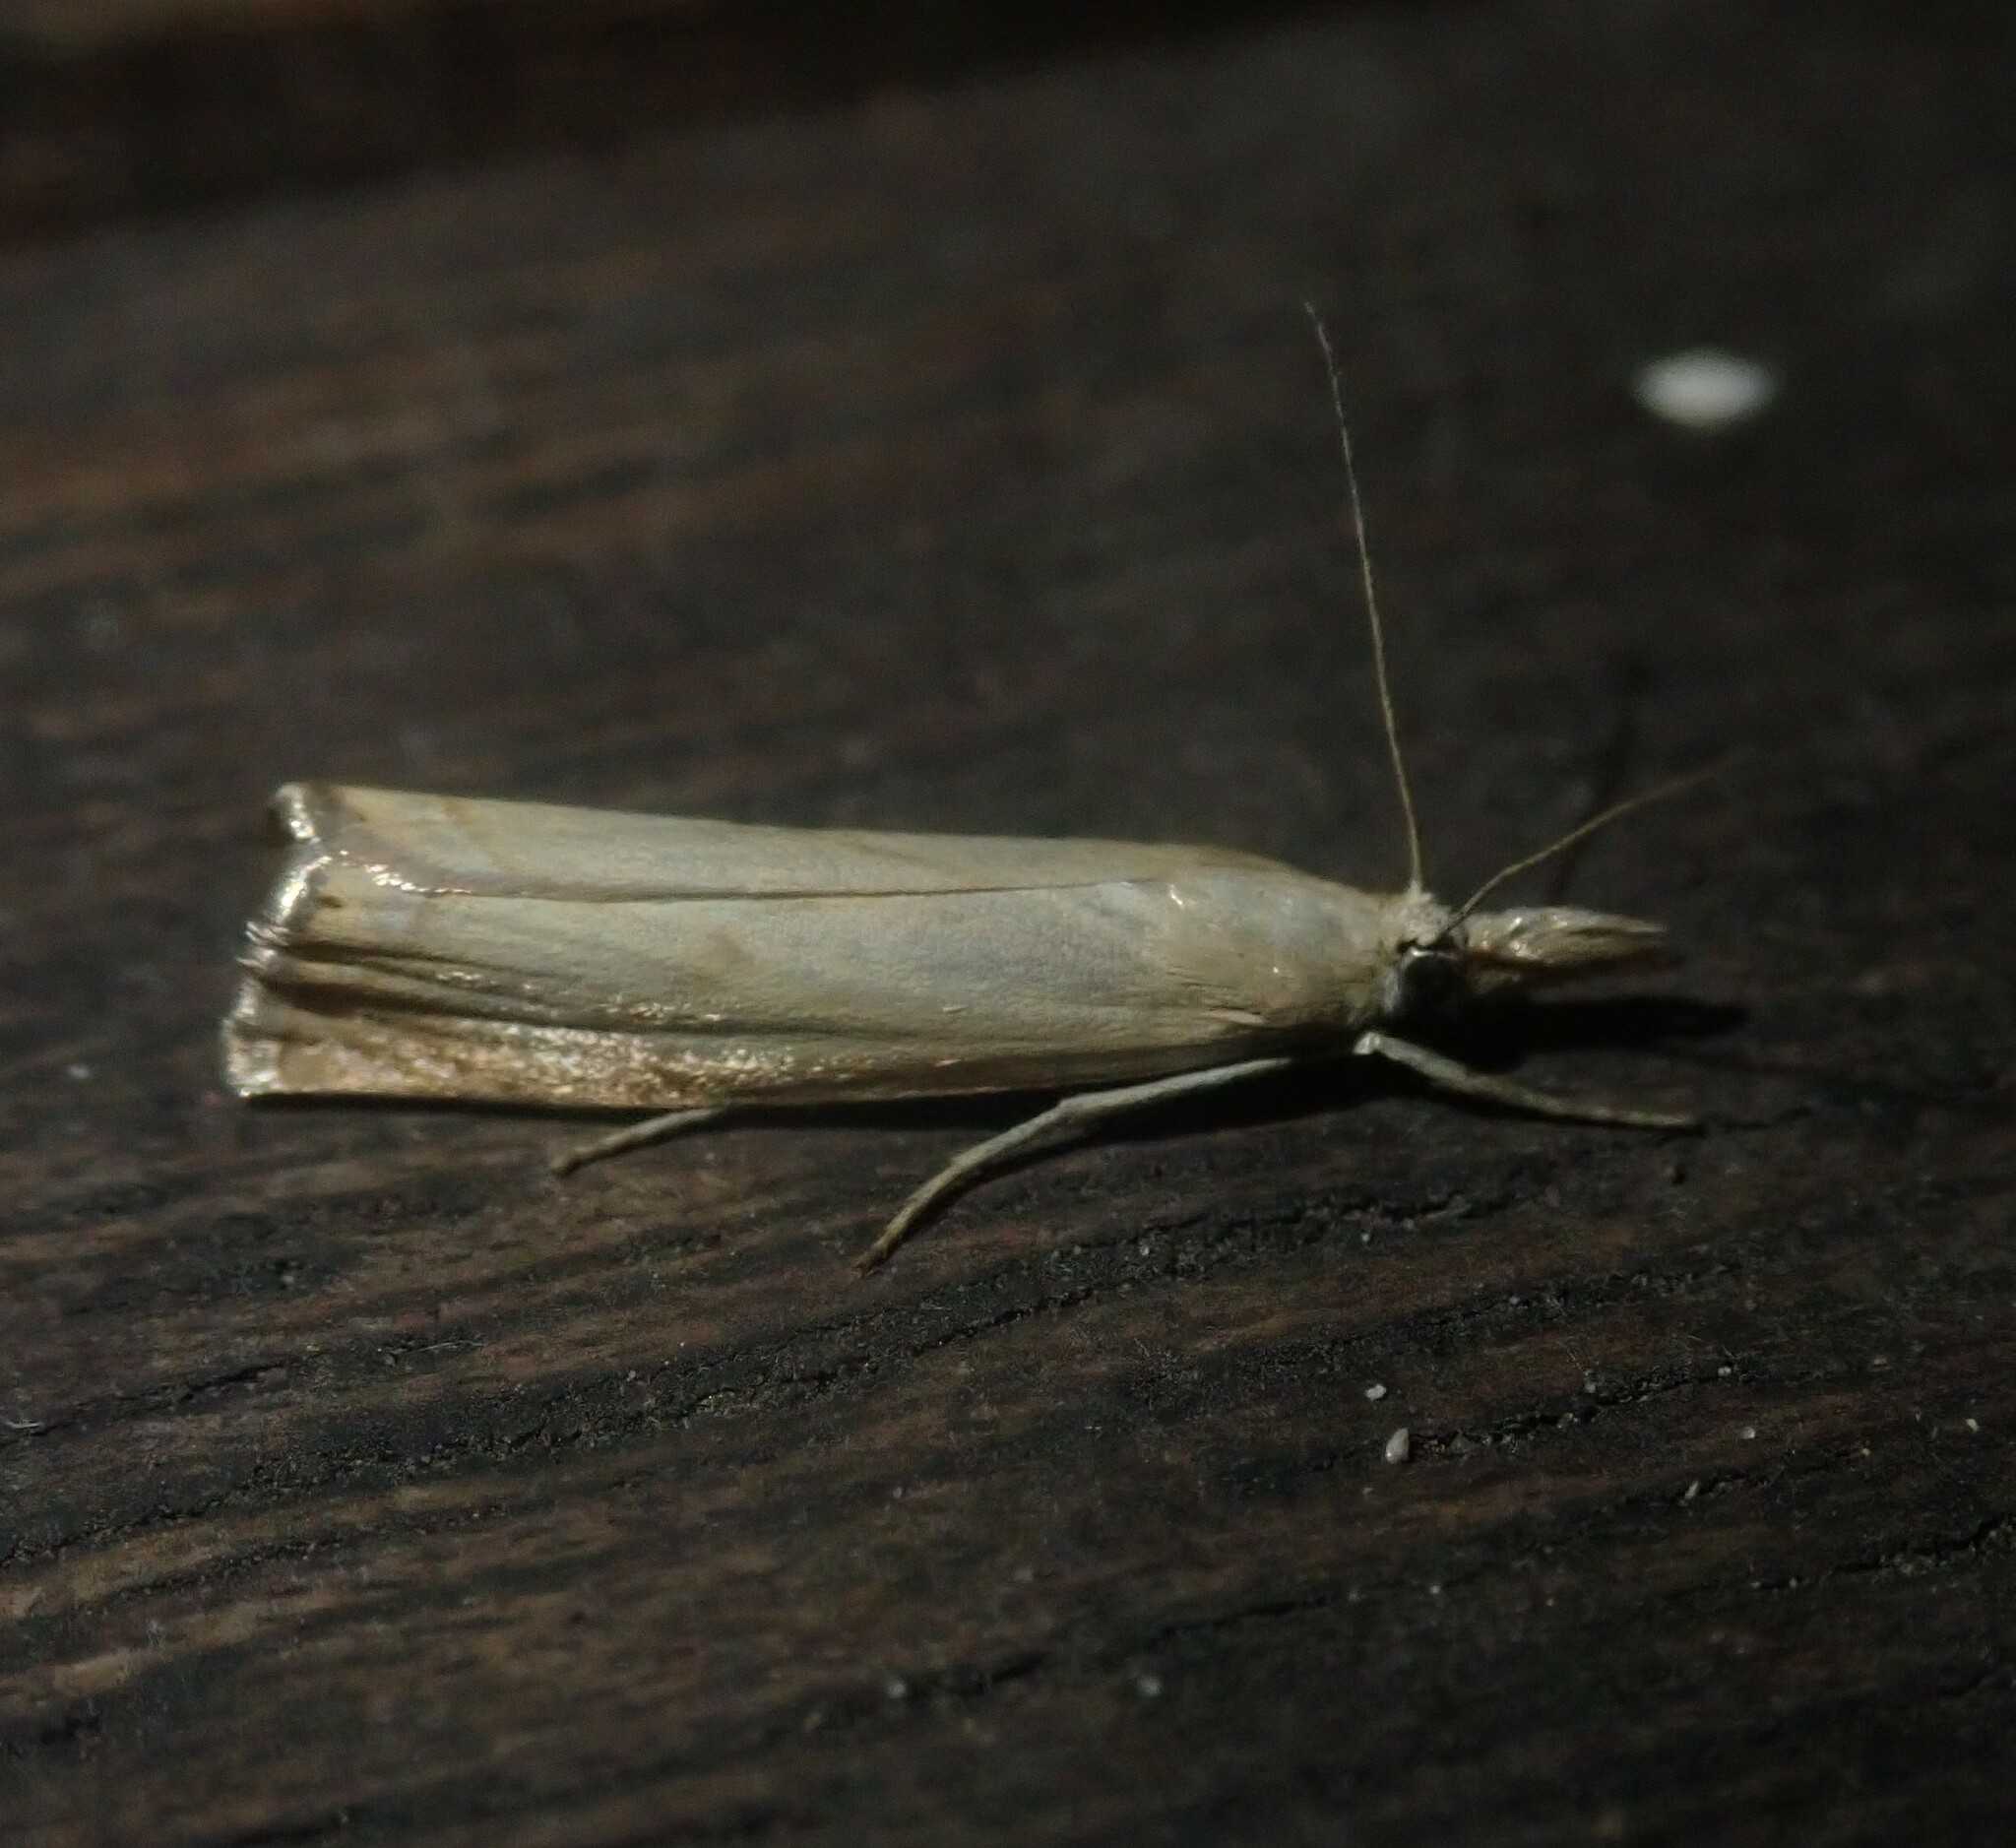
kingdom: Animalia
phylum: Arthropoda
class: Insecta
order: Lepidoptera
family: Crambidae
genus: Chrysoteuchia
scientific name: Chrysoteuchia culmella
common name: Garden grass-veneer
